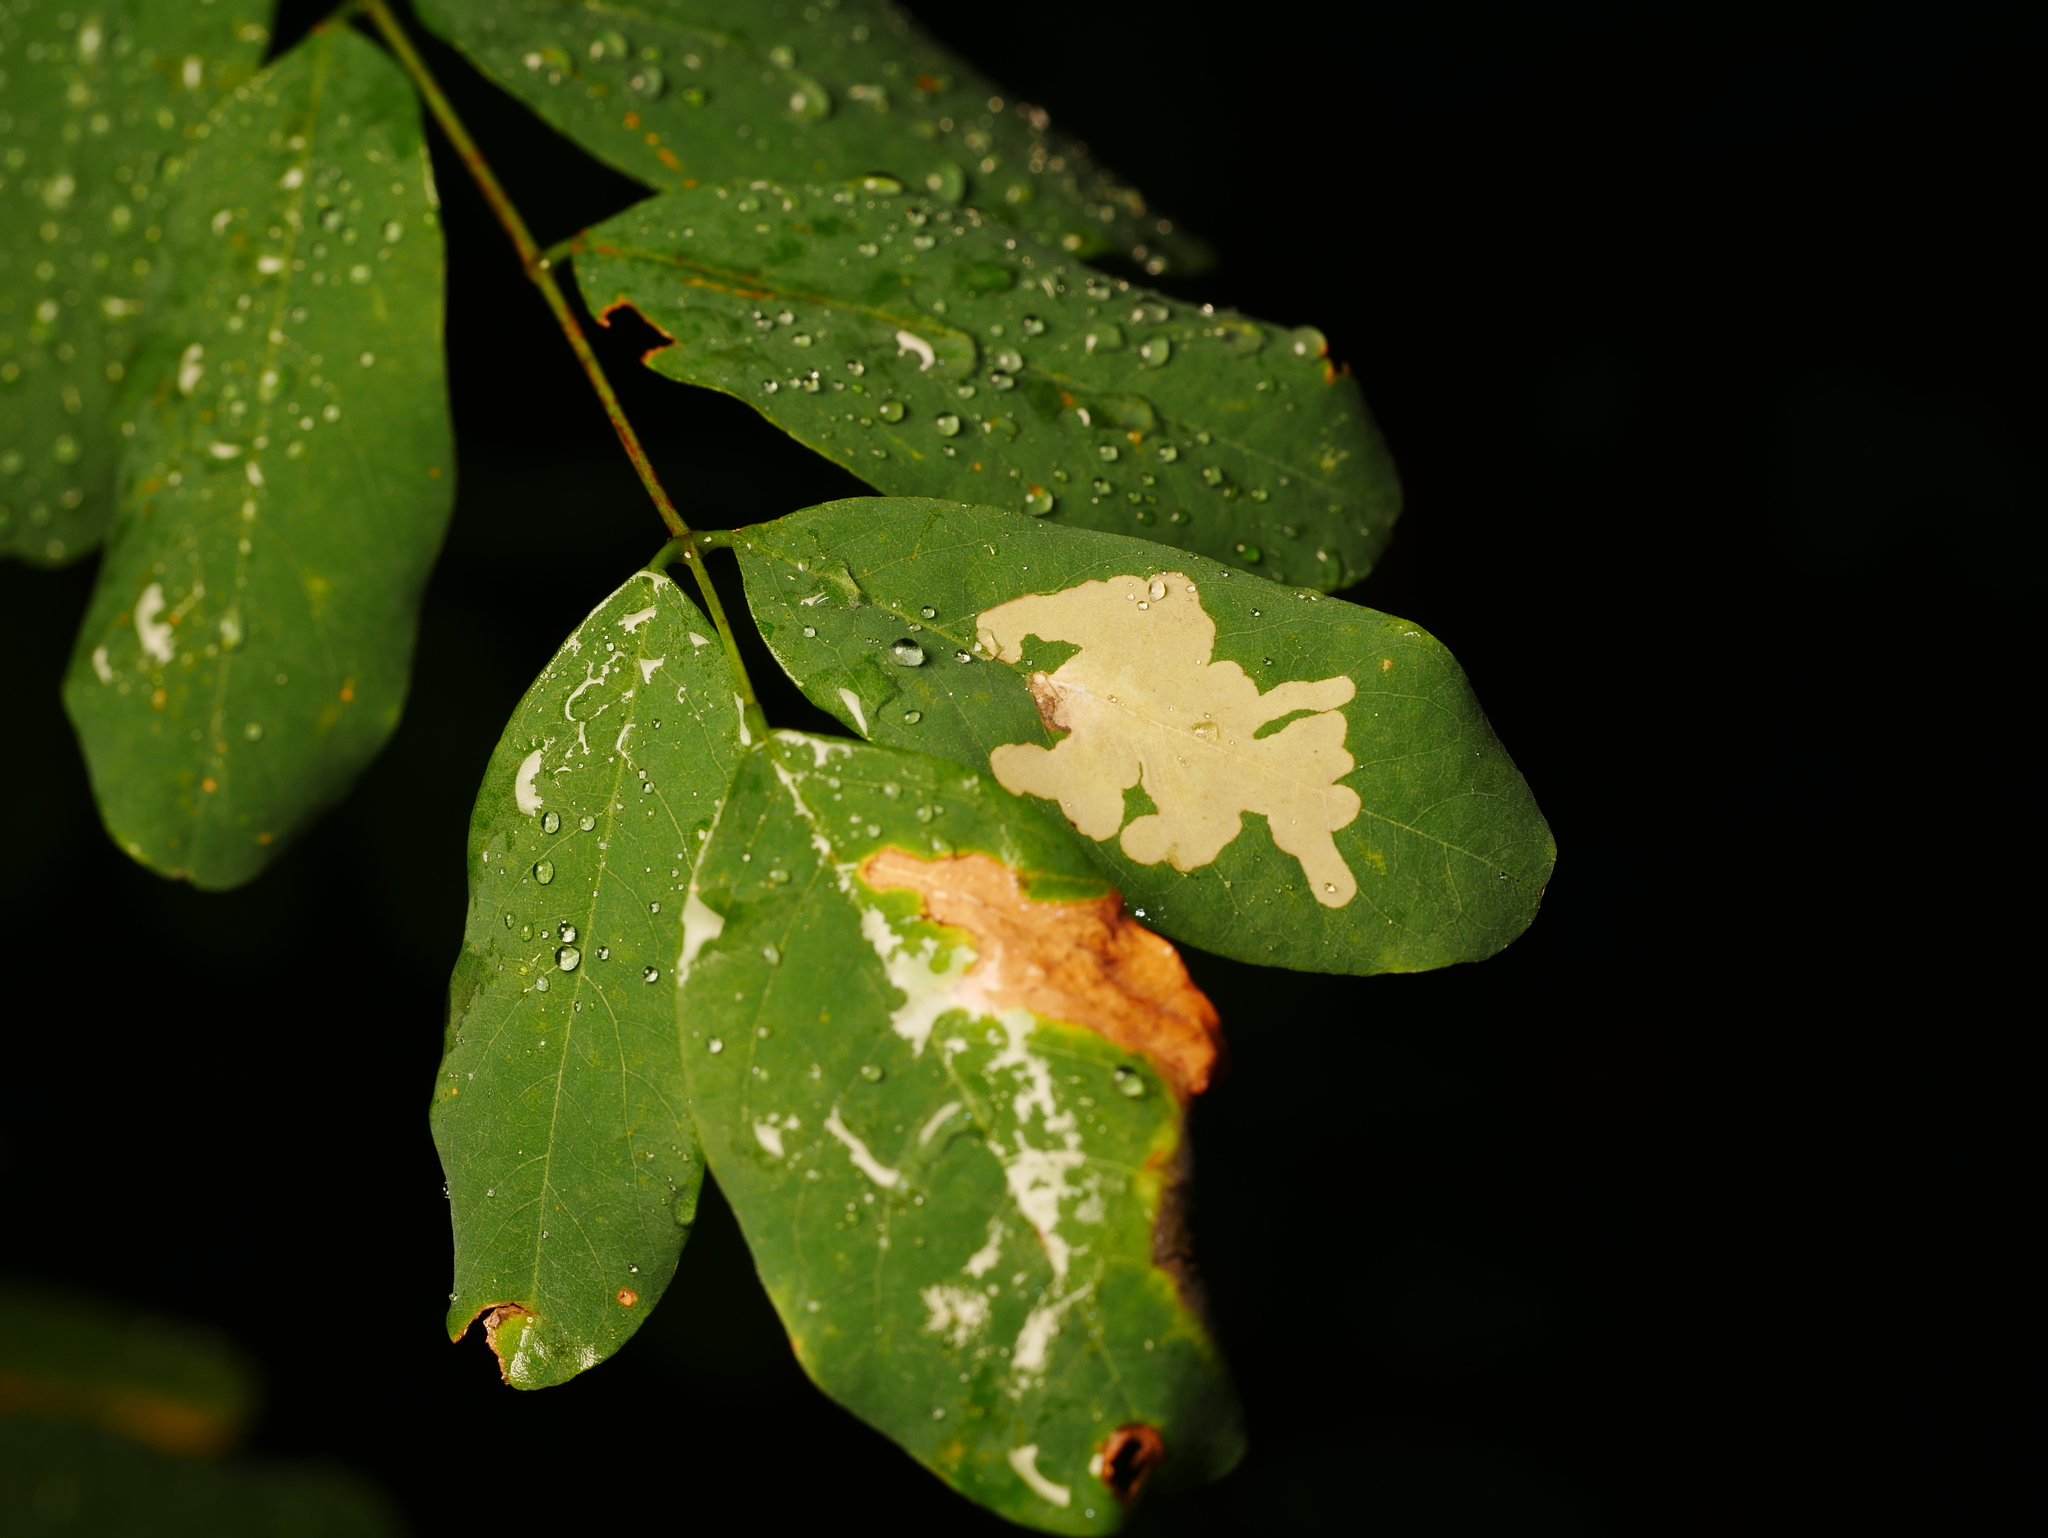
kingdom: Animalia
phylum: Arthropoda
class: Insecta
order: Lepidoptera
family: Gracillariidae
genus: Parectopa
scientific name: Parectopa robiniella
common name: Locust digitate leafminer
